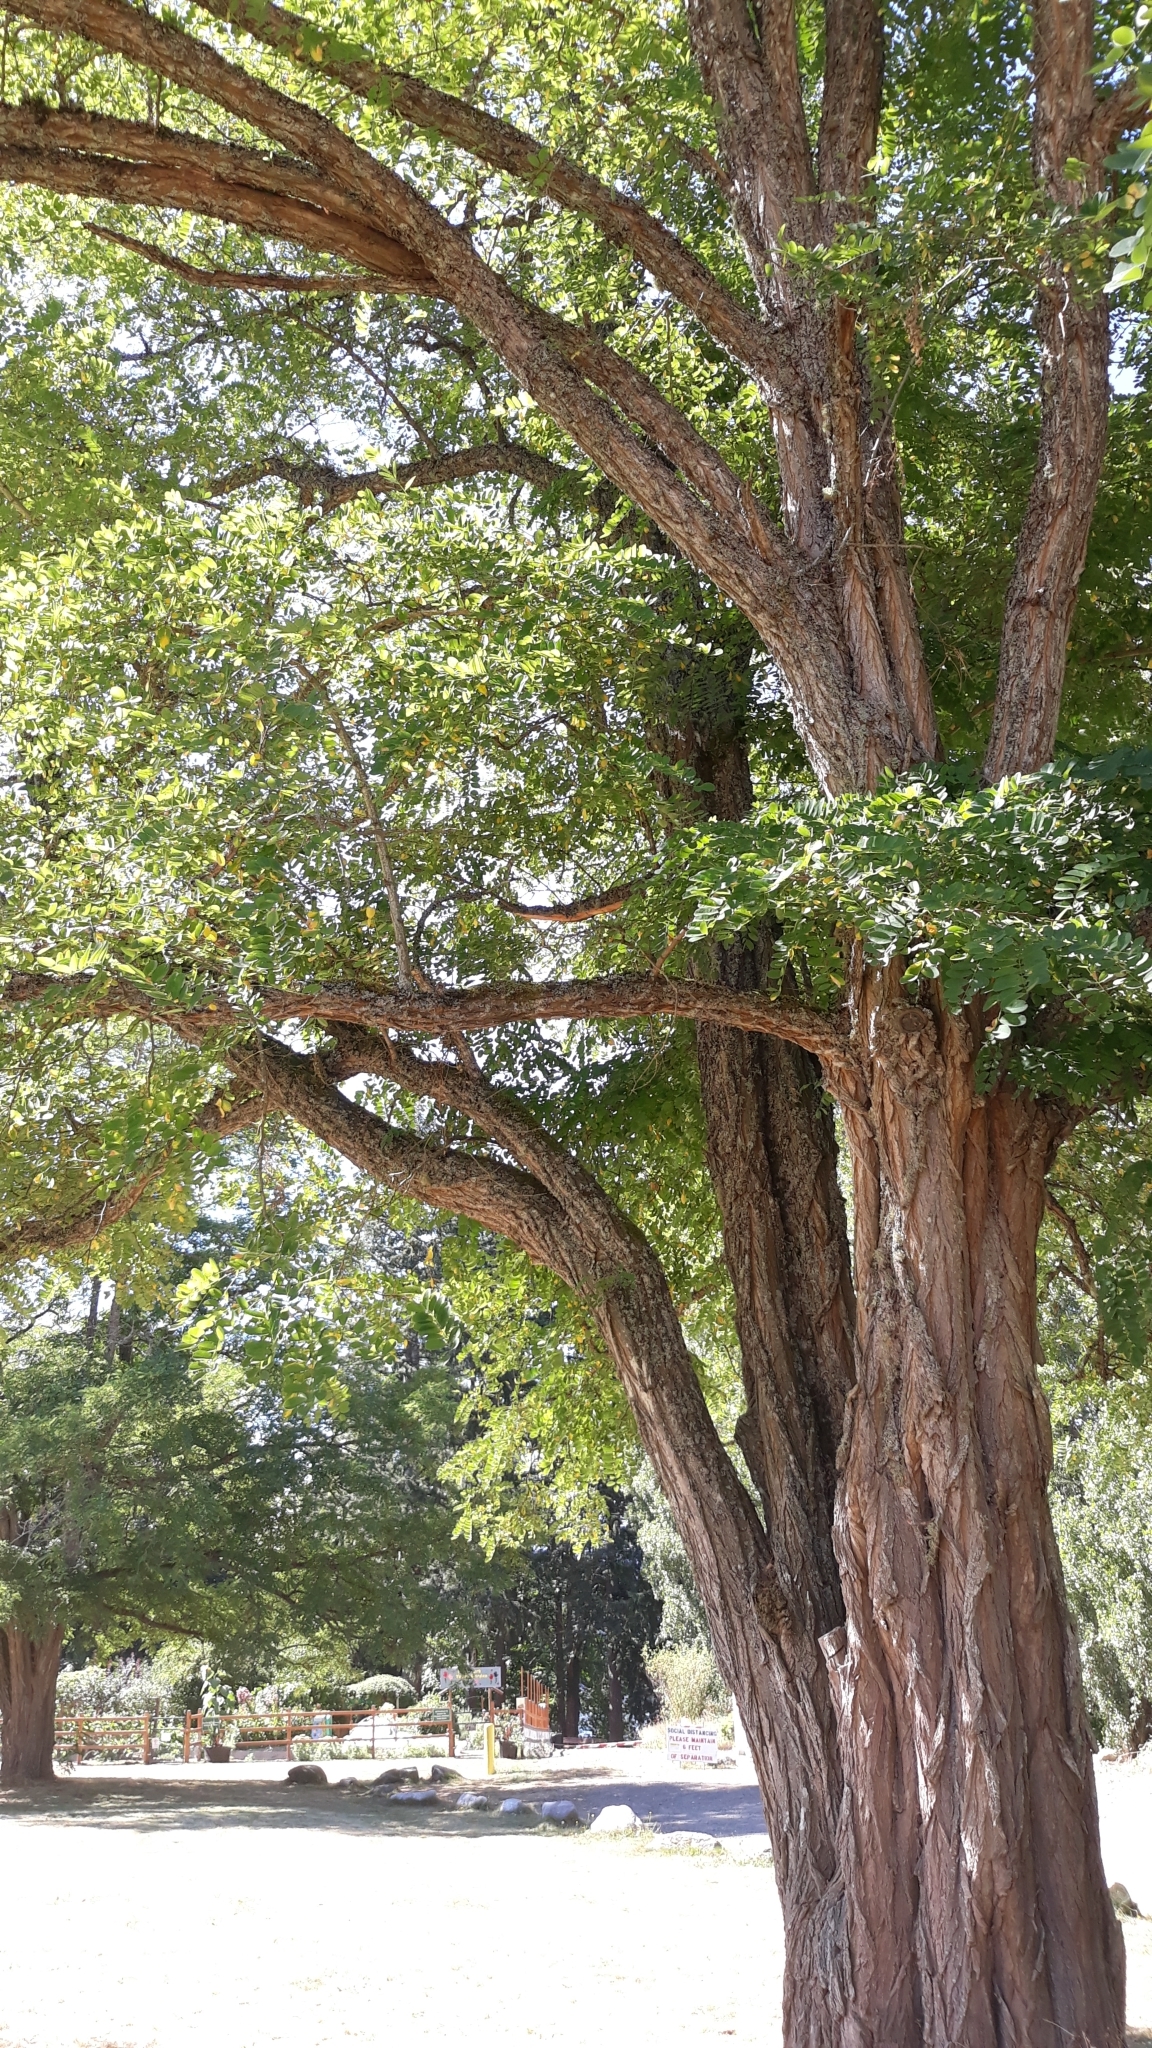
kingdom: Plantae
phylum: Tracheophyta
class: Magnoliopsida
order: Fabales
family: Fabaceae
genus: Robinia
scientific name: Robinia pseudoacacia
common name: Black locust
